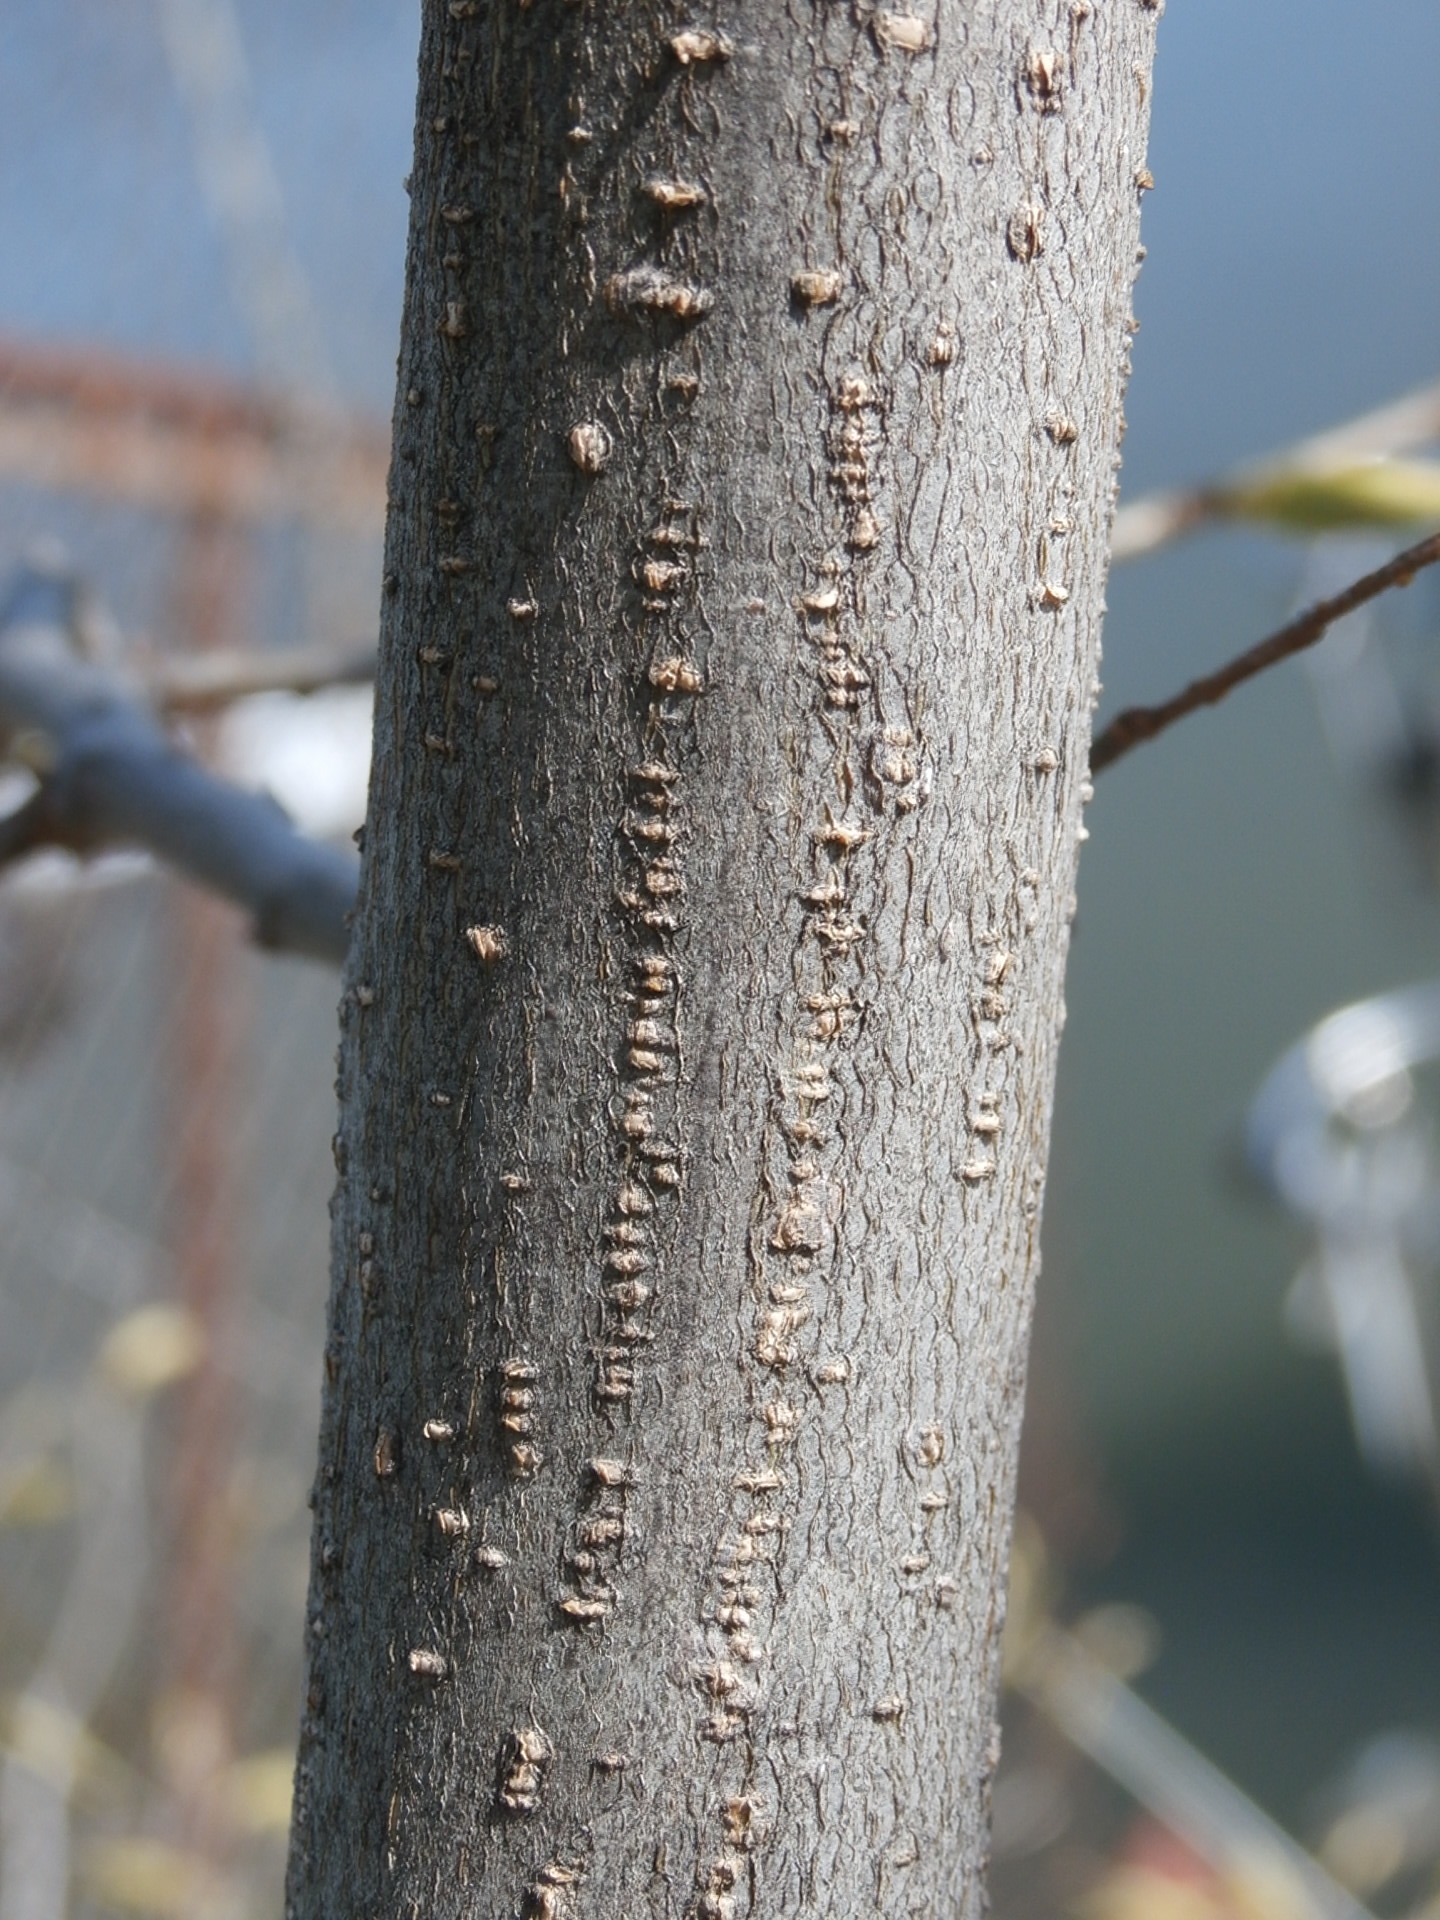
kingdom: Plantae
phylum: Tracheophyta
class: Magnoliopsida
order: Rosales
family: Cannabaceae
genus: Celtis
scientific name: Celtis occidentalis
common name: Common hackberry
